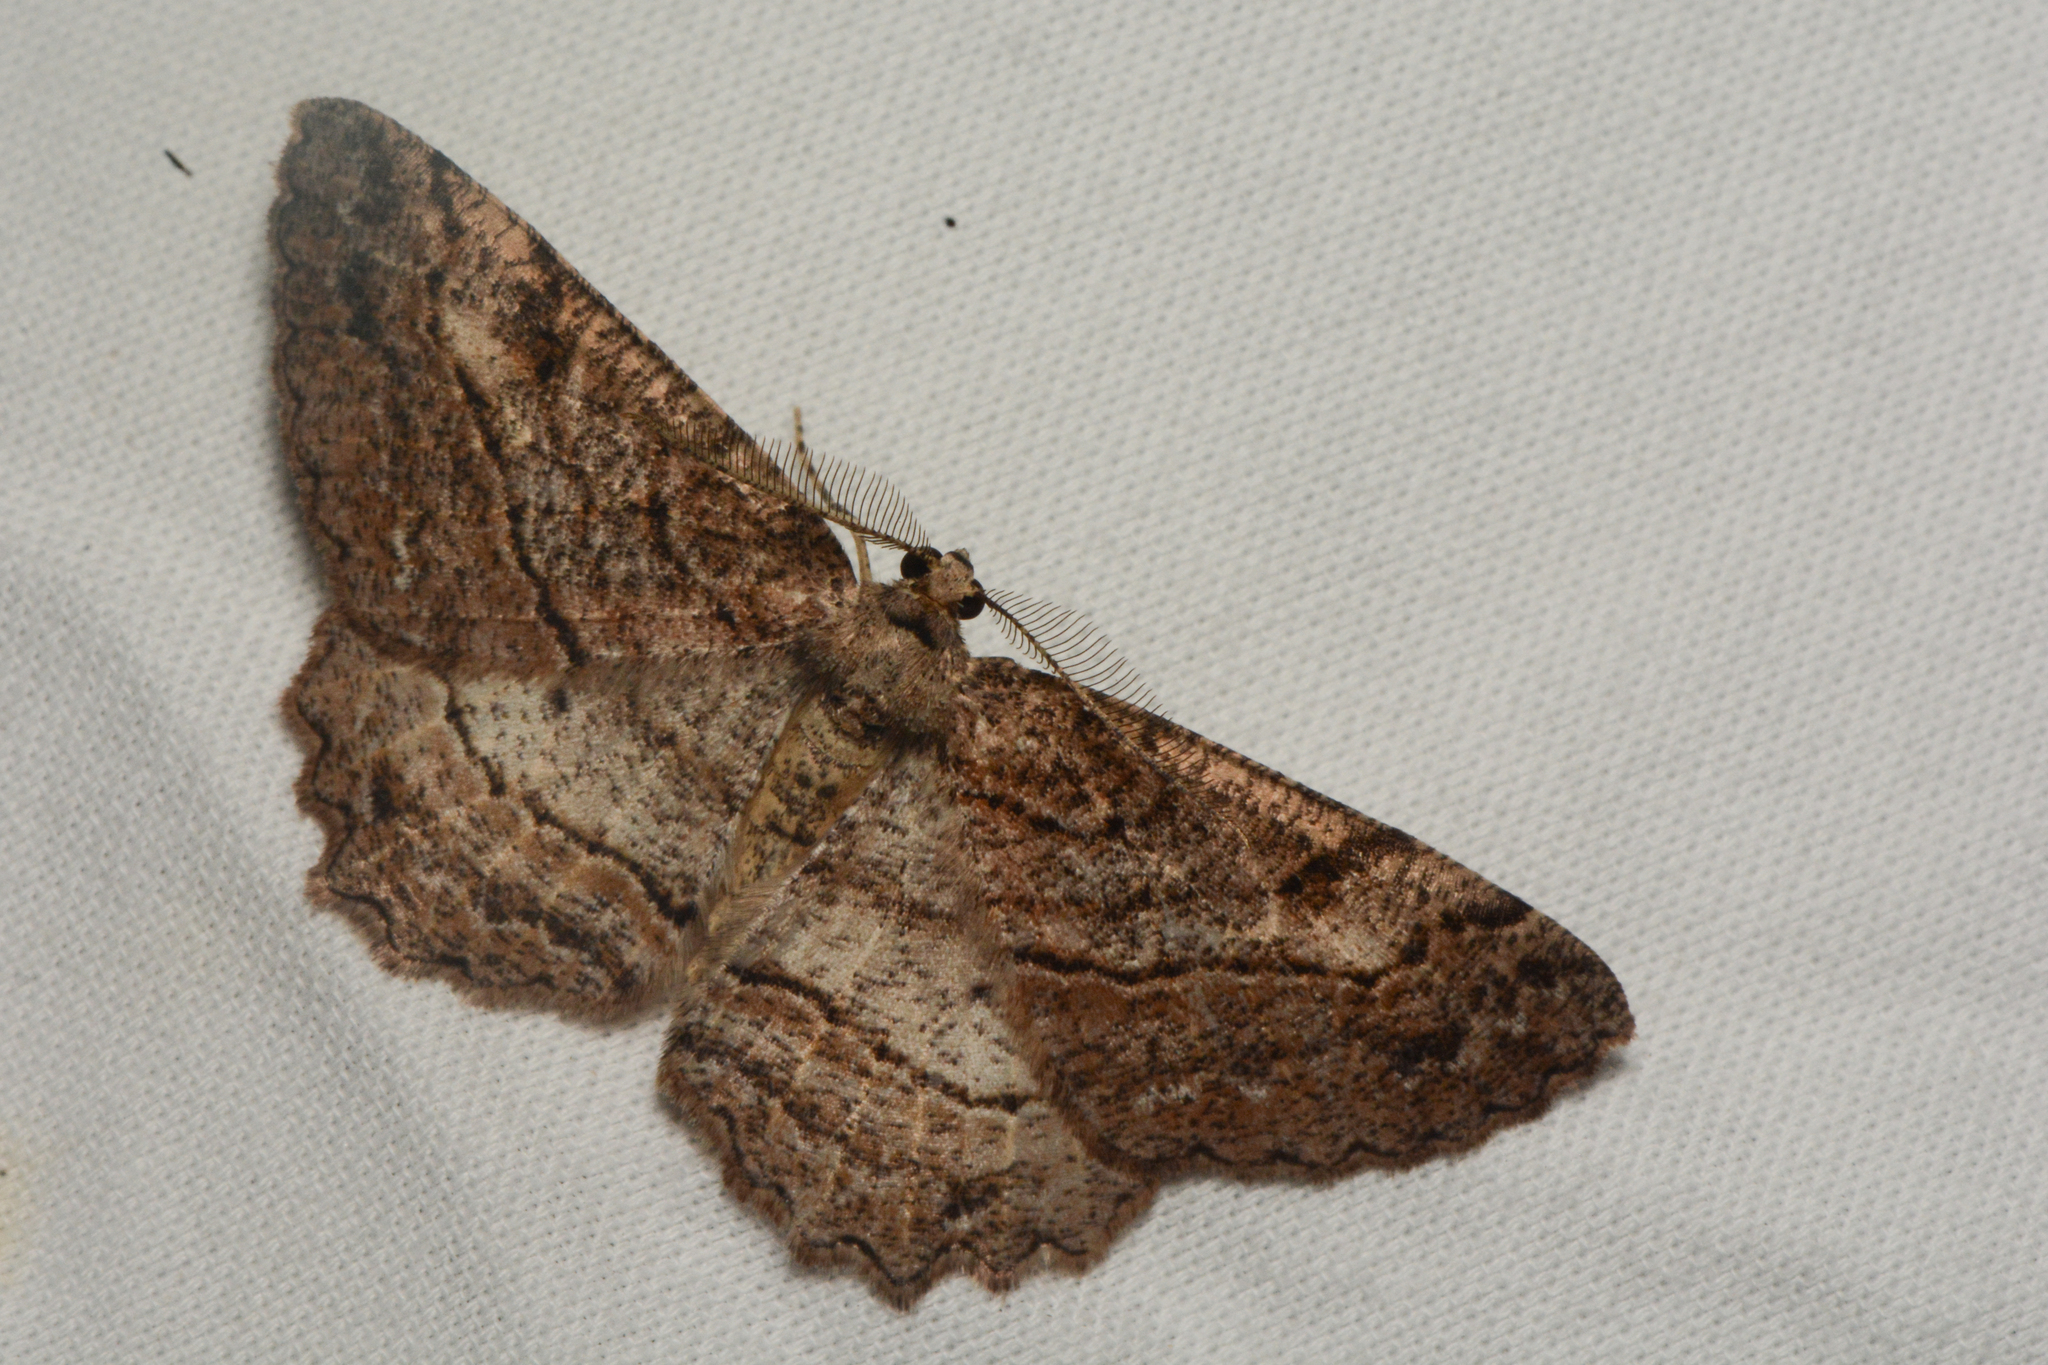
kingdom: Animalia
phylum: Arthropoda
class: Insecta
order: Lepidoptera
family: Geometridae
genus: Neoalcis
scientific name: Neoalcis californiaria
